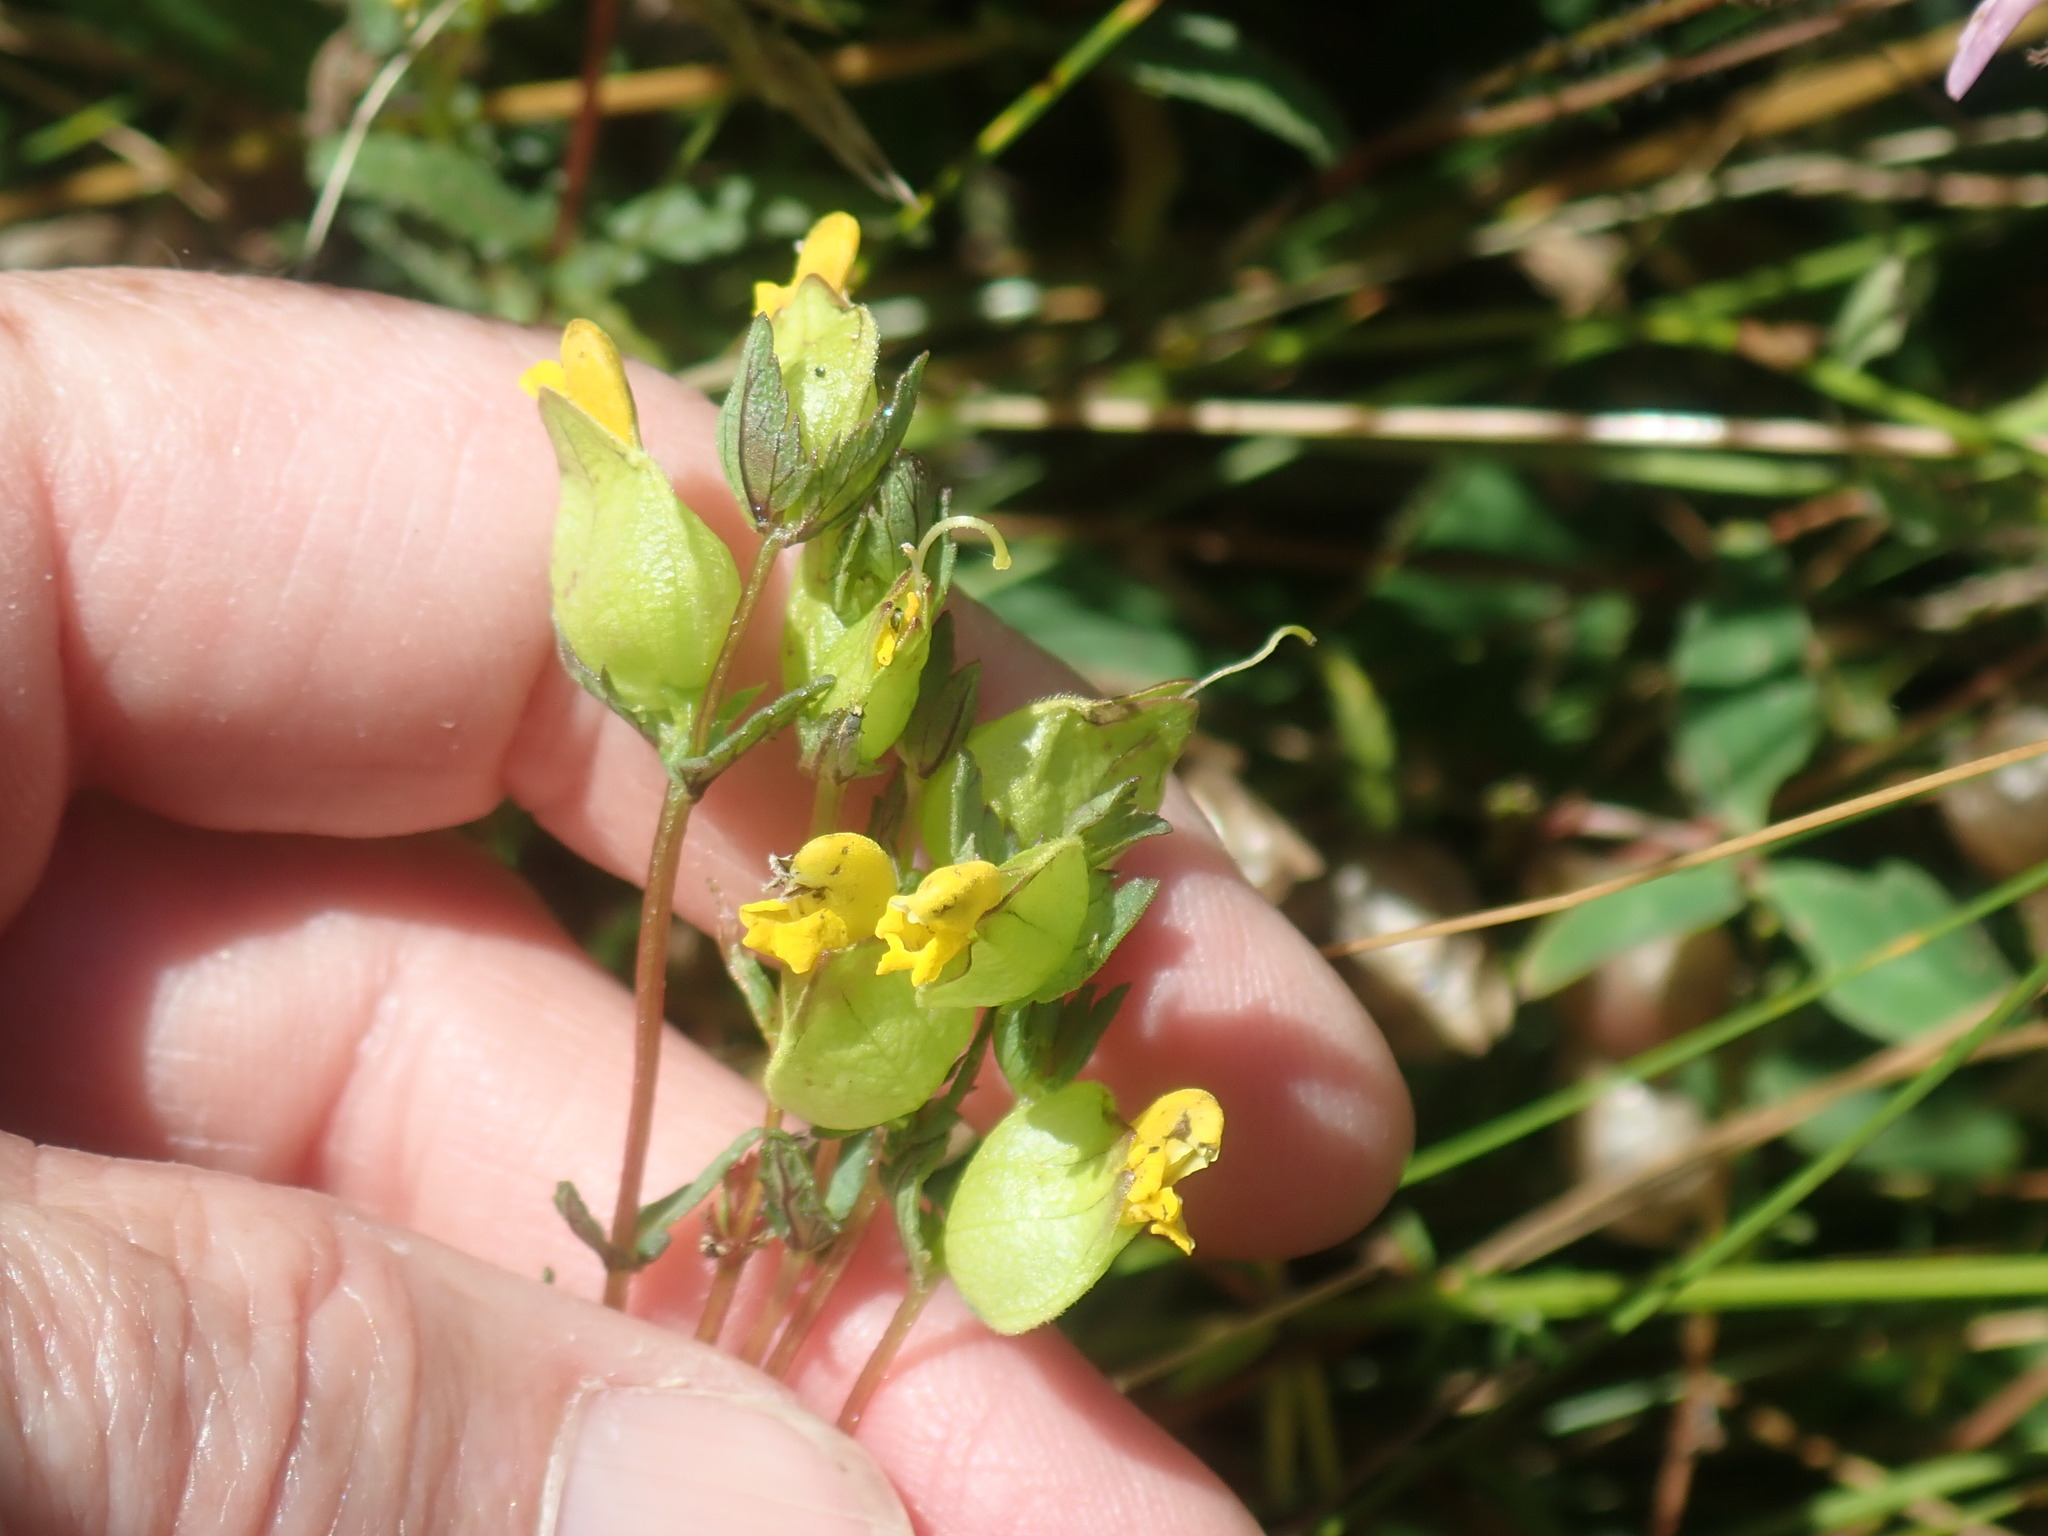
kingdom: Plantae
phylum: Tracheophyta
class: Magnoliopsida
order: Lamiales
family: Orobanchaceae
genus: Rhinanthus
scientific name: Rhinanthus minor
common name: Yellow-rattle
